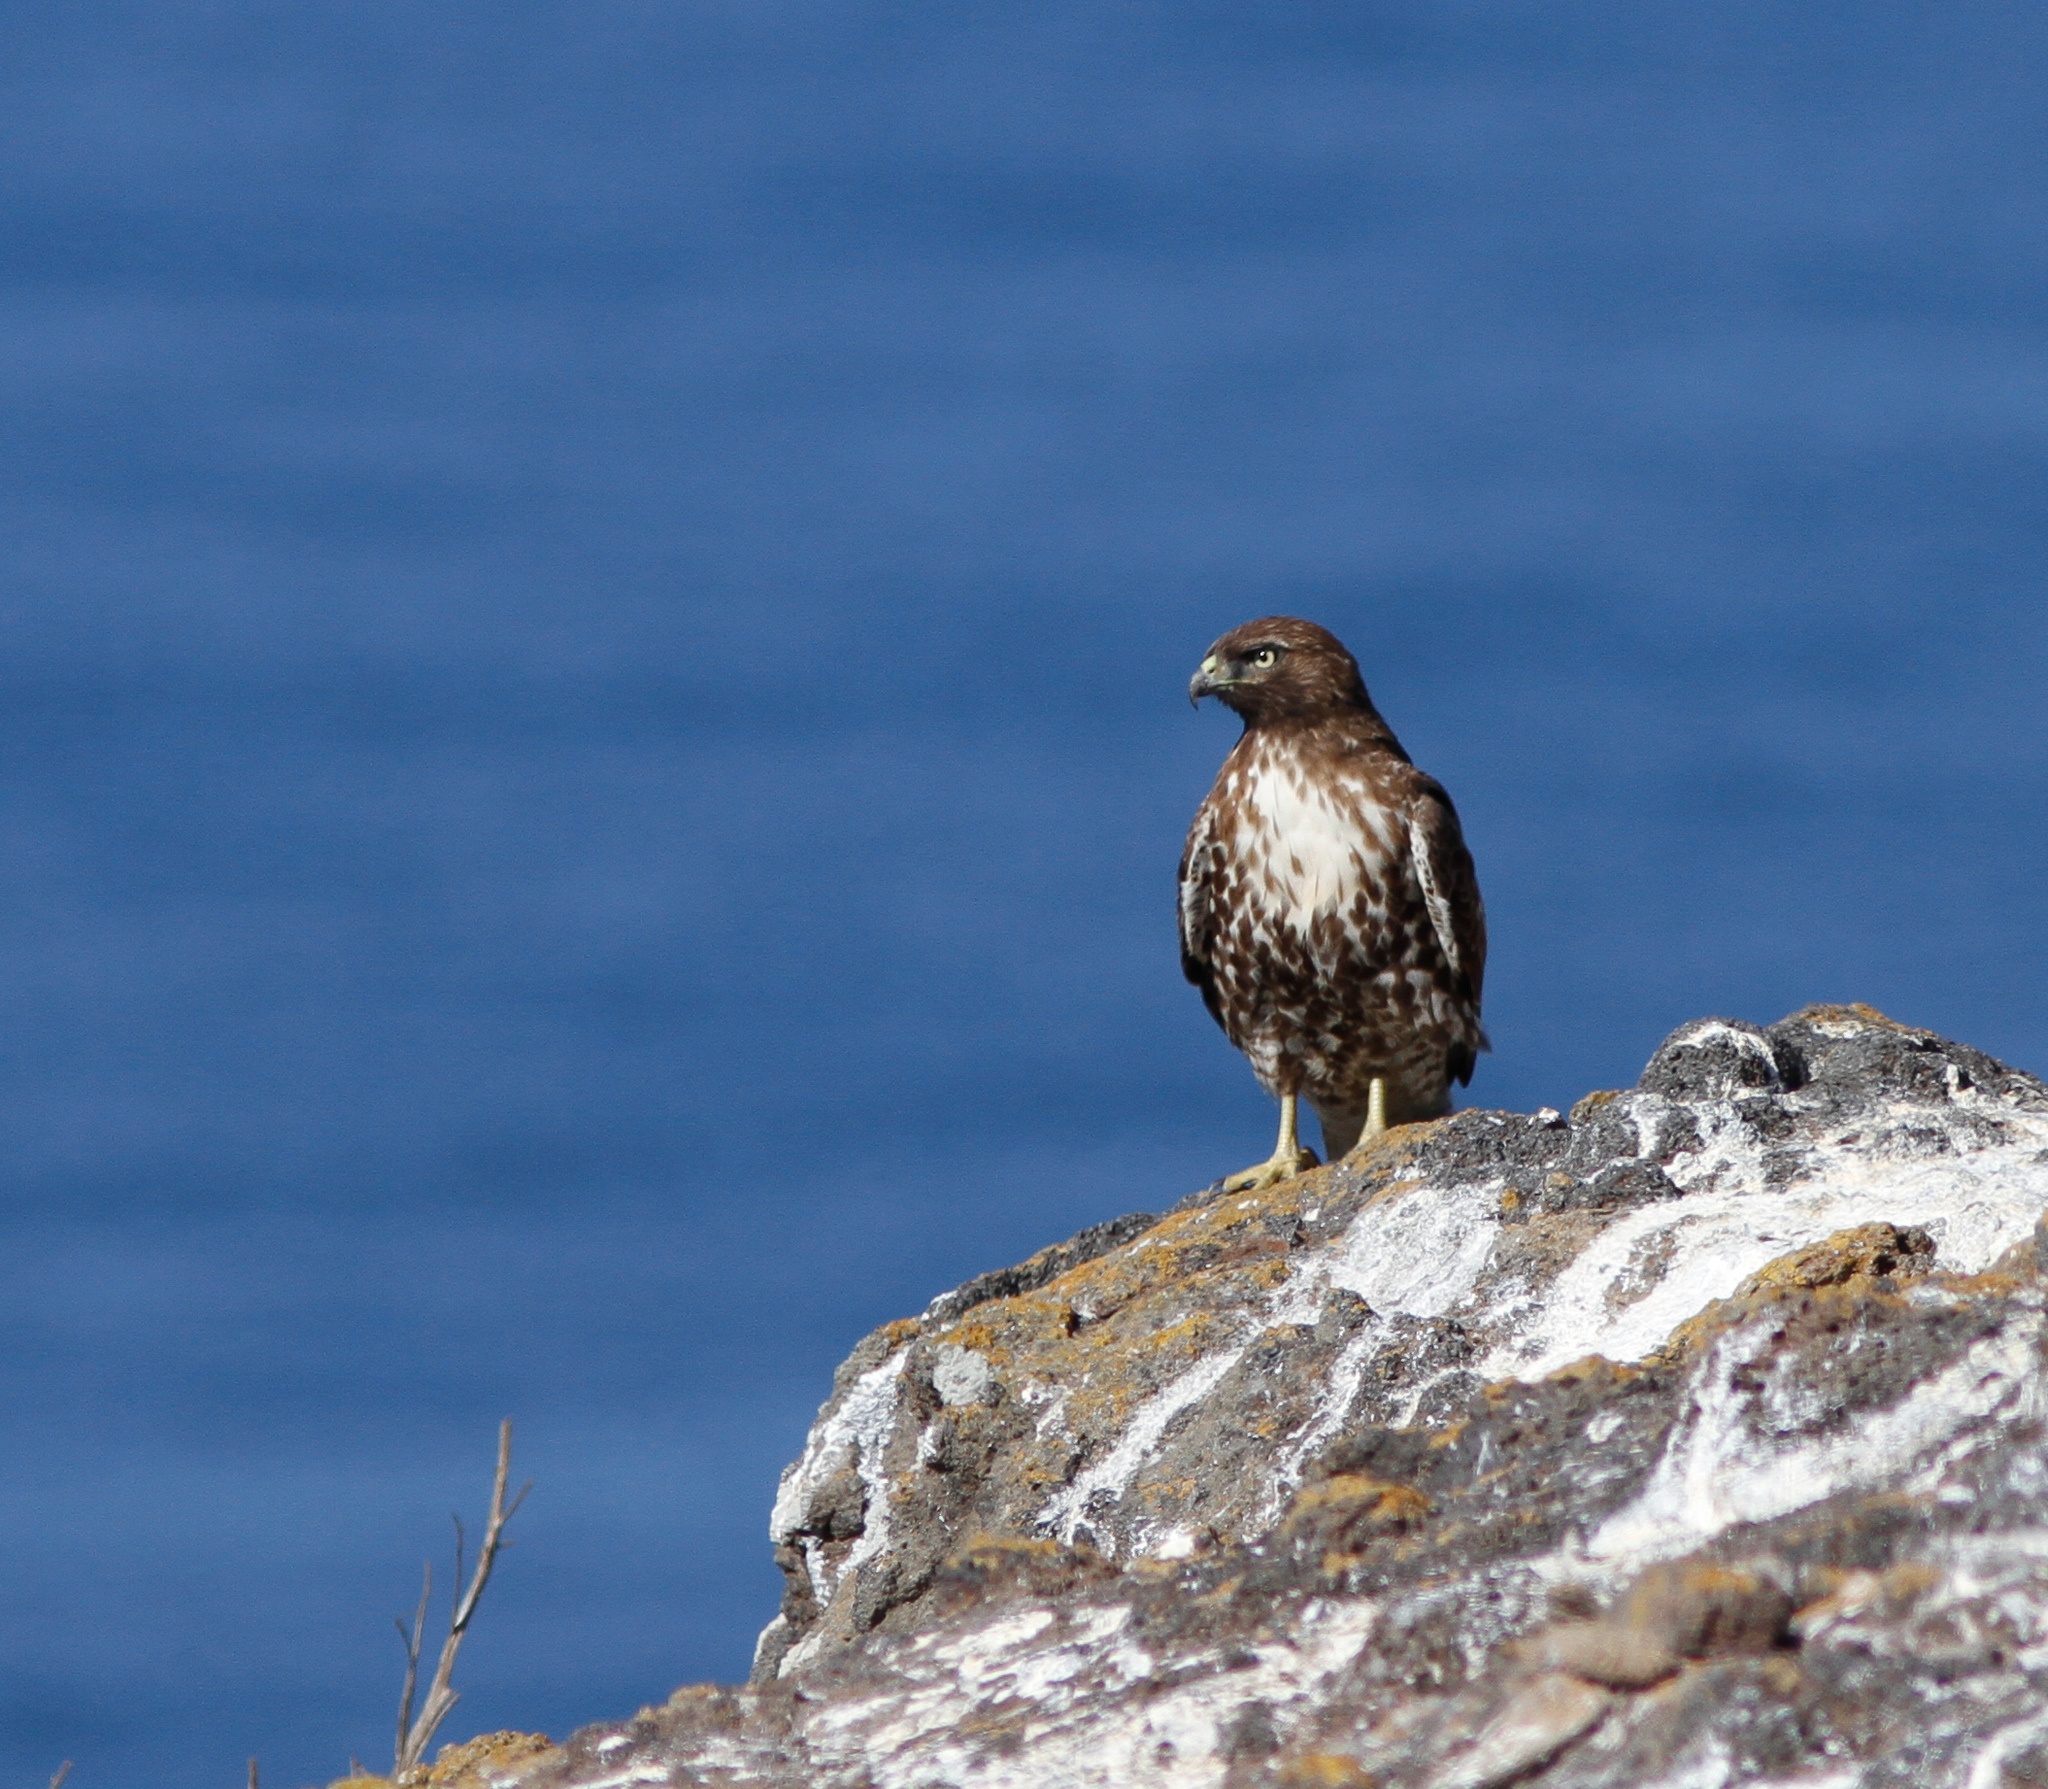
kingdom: Animalia
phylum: Chordata
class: Aves
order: Accipitriformes
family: Accipitridae
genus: Buteo
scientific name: Buteo jamaicensis
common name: Red-tailed hawk
